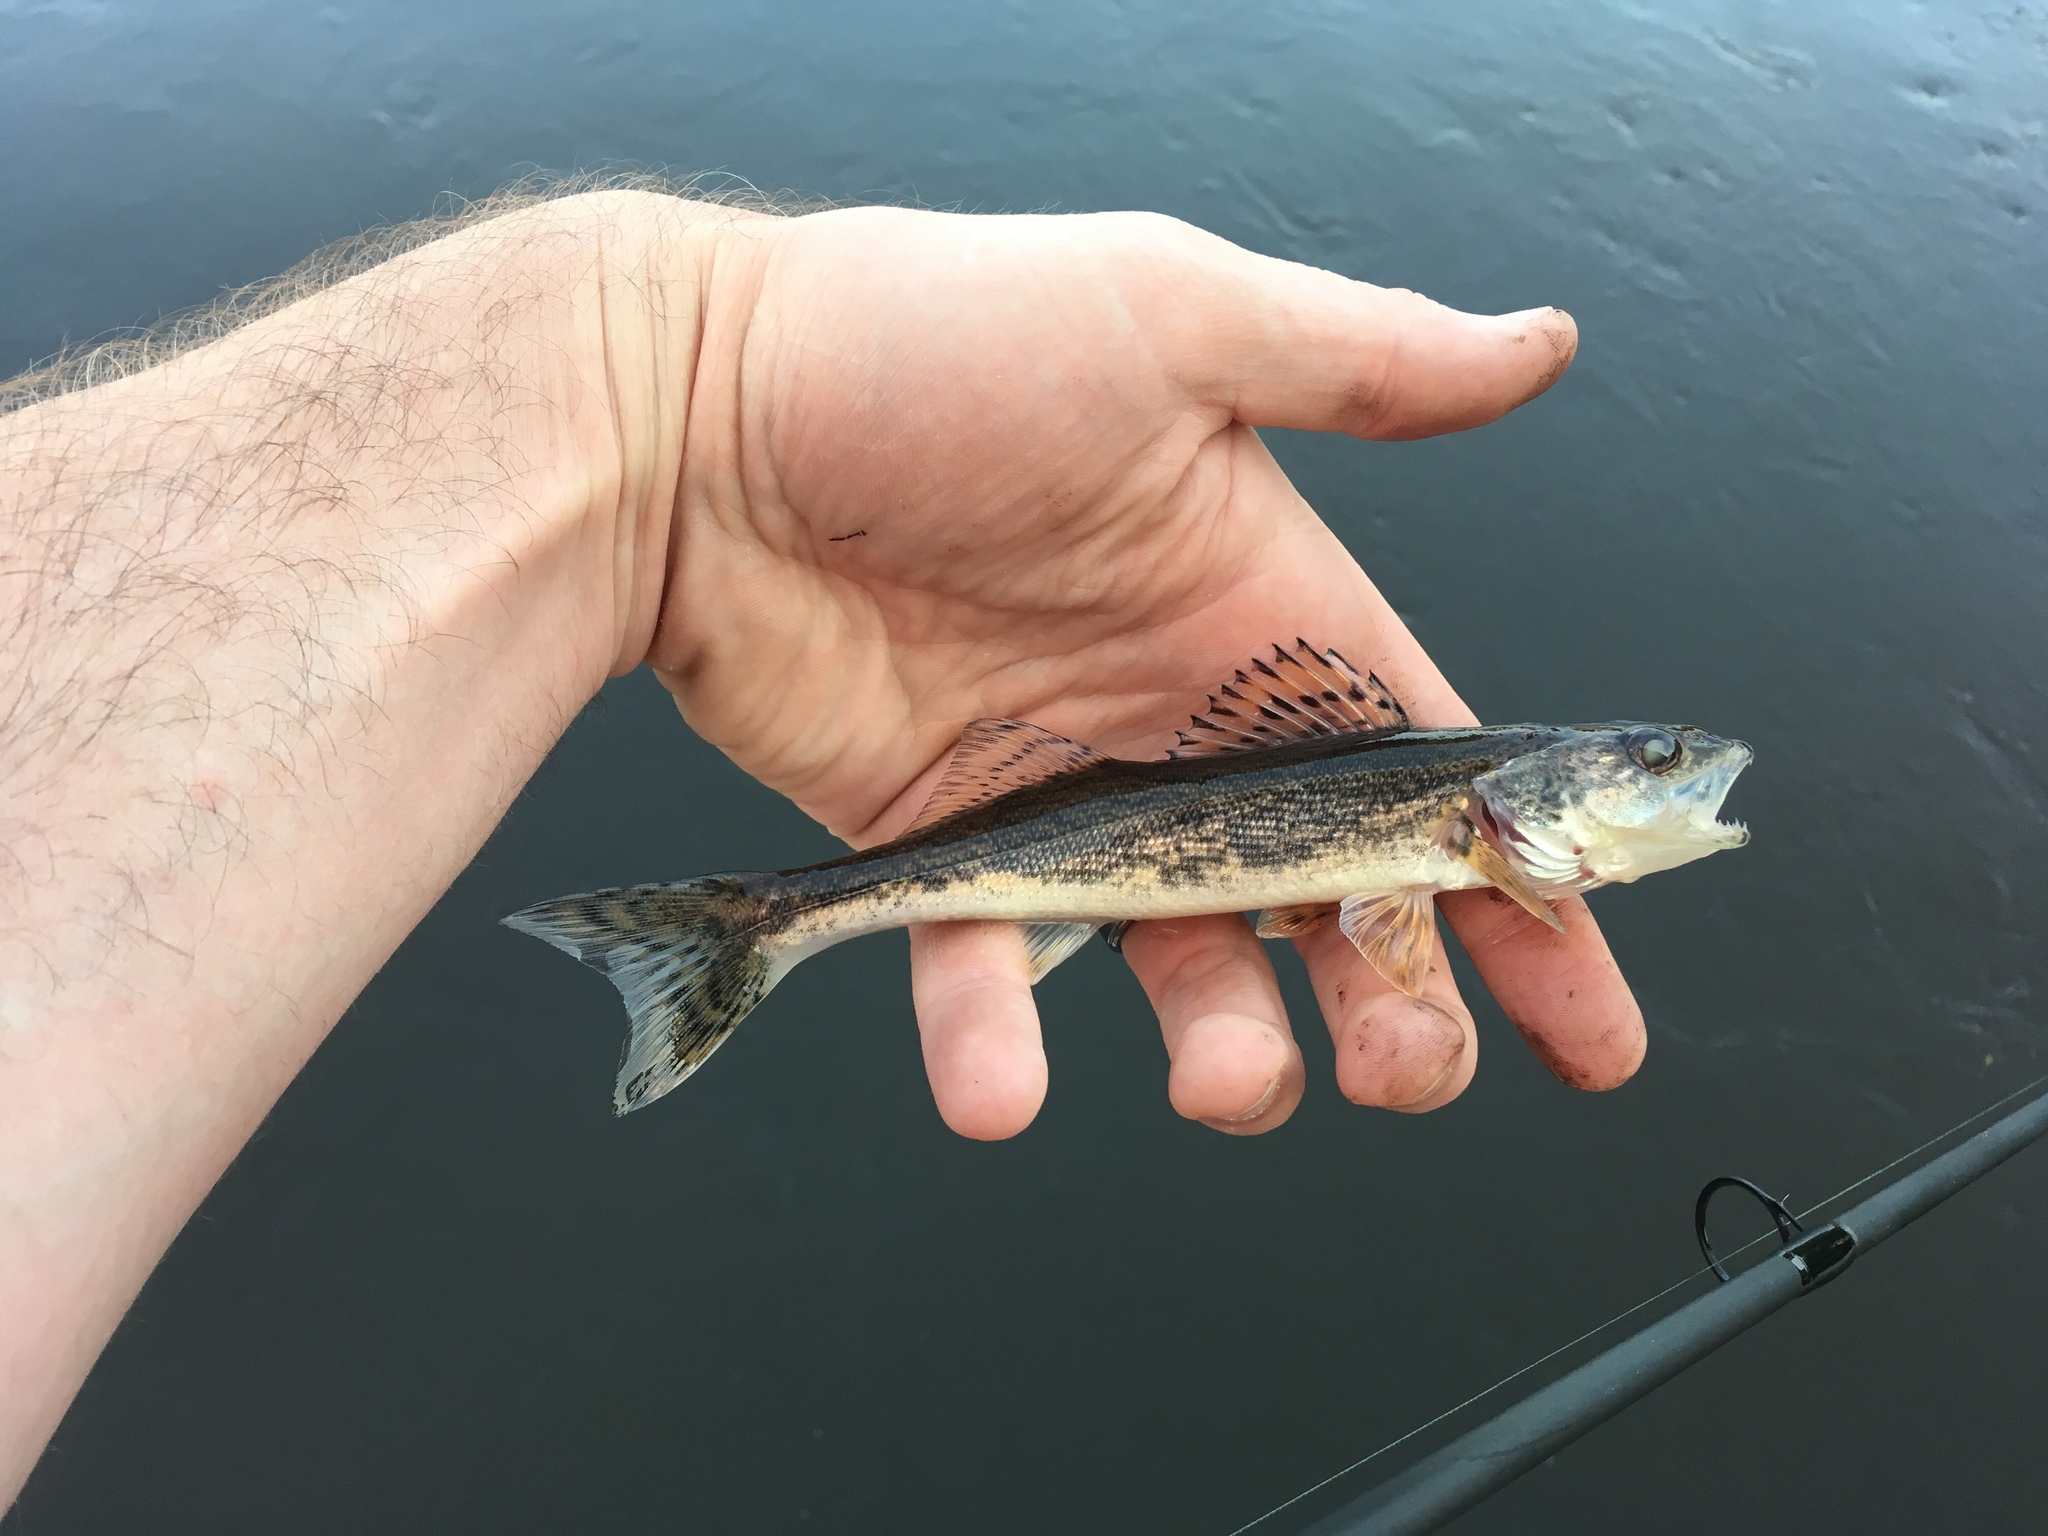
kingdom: Animalia
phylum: Chordata
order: Perciformes
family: Percidae
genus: Sander
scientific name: Sander canadensis
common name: Sauger
